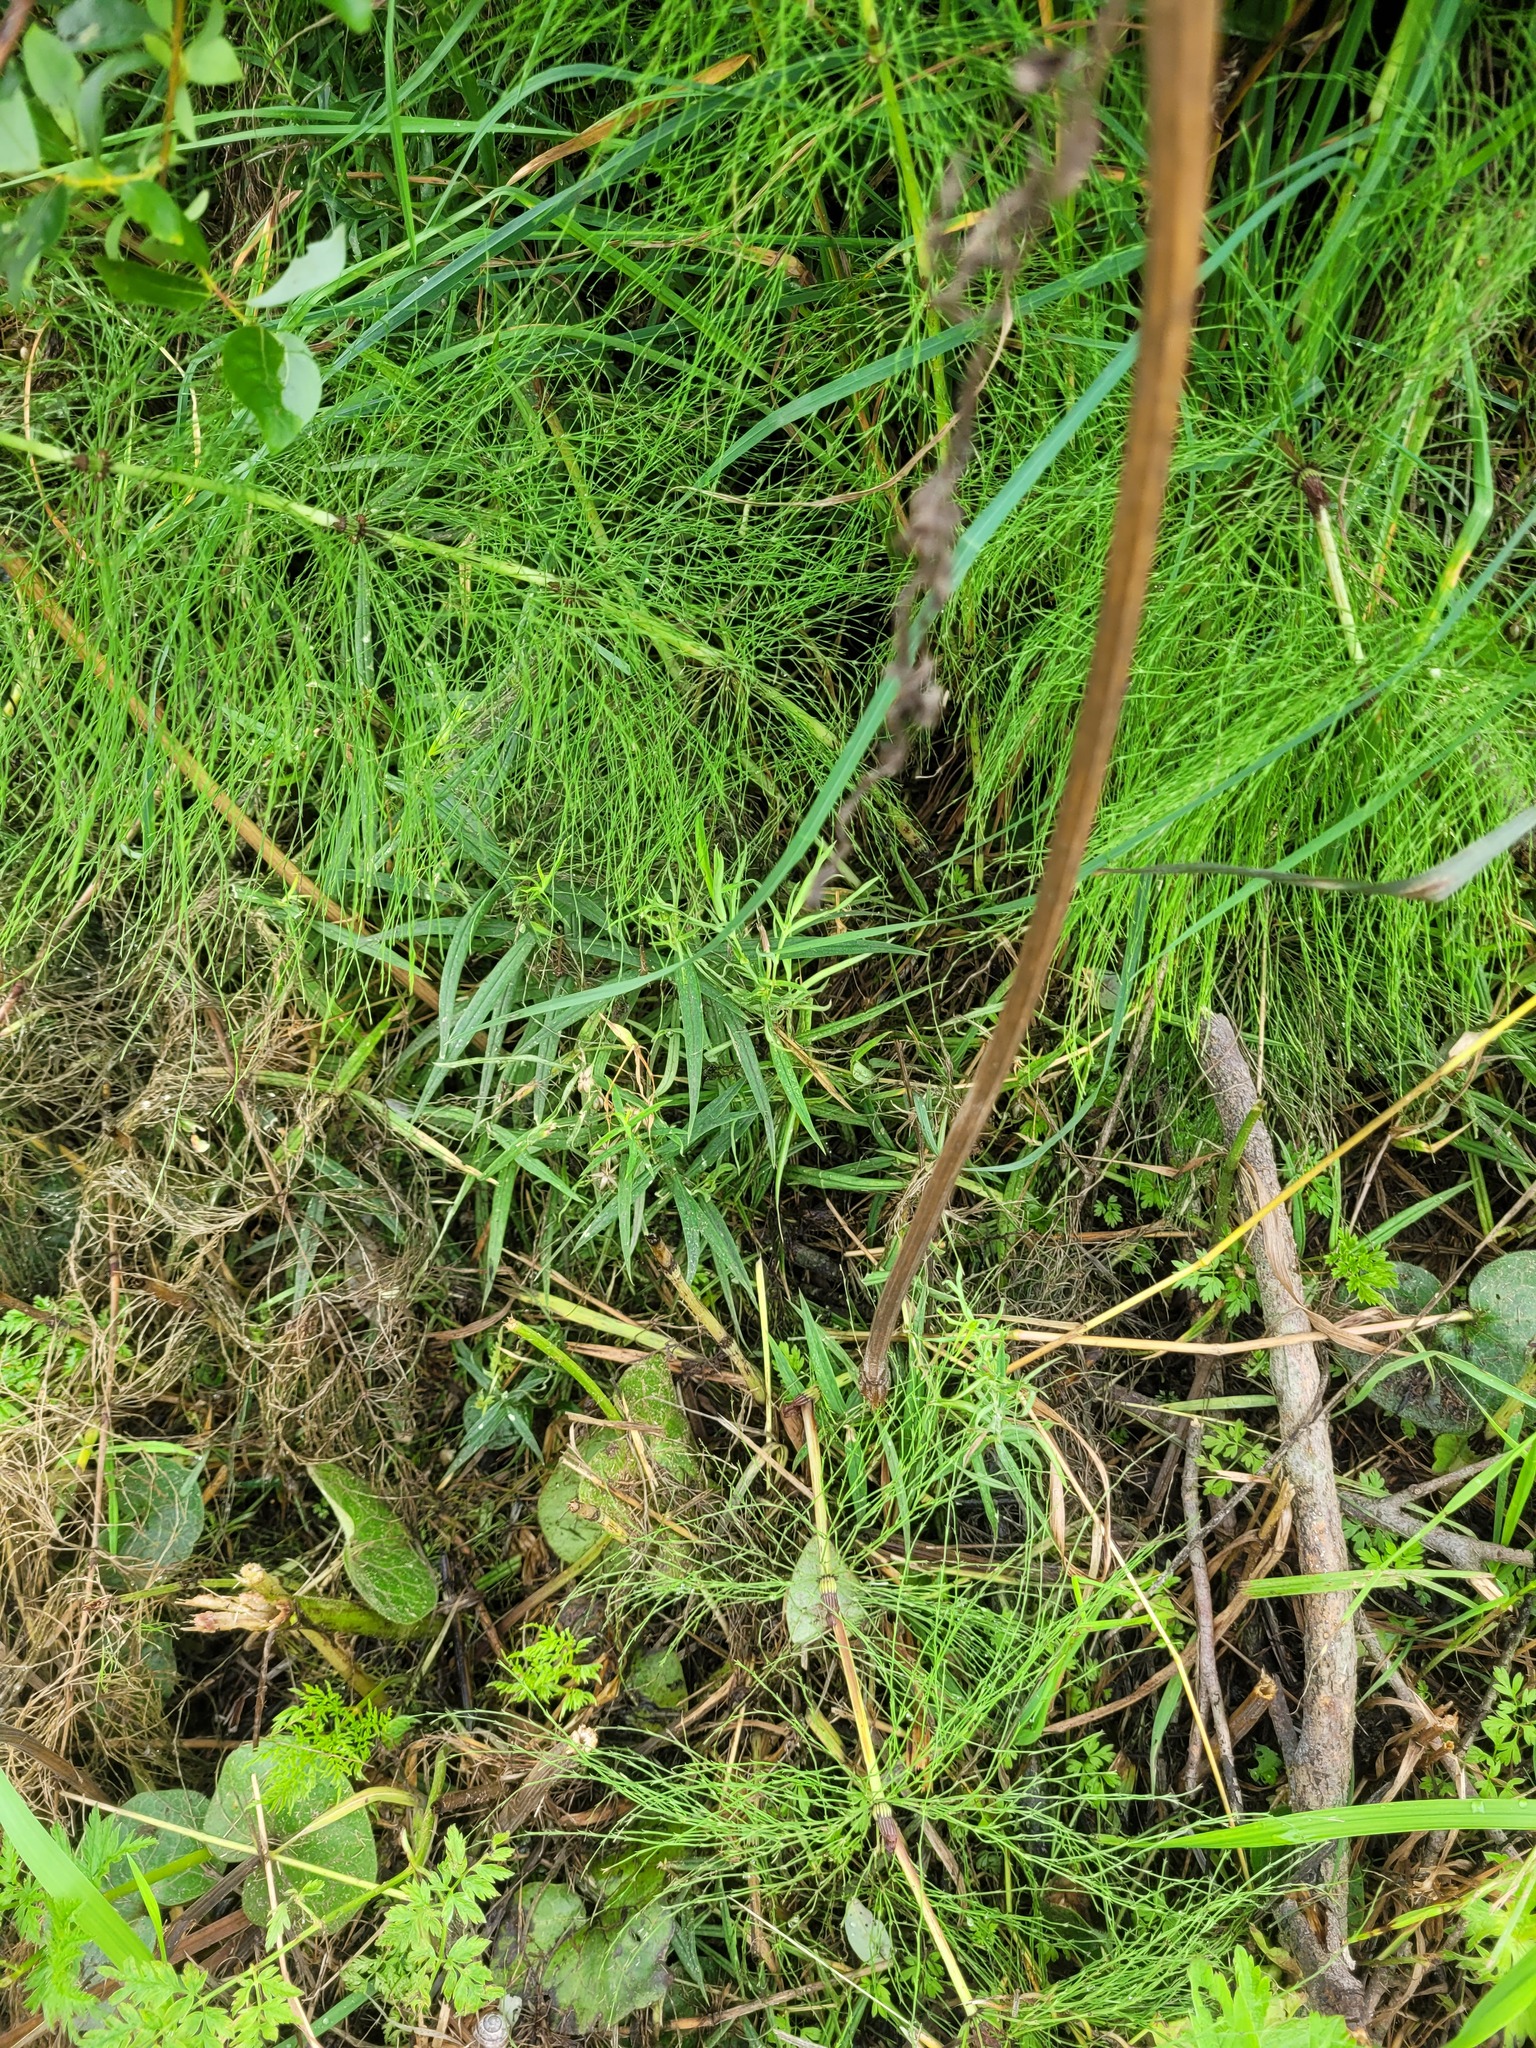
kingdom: Plantae
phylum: Tracheophyta
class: Magnoliopsida
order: Caryophyllales
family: Caryophyllaceae
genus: Rabelera
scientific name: Rabelera holostea
